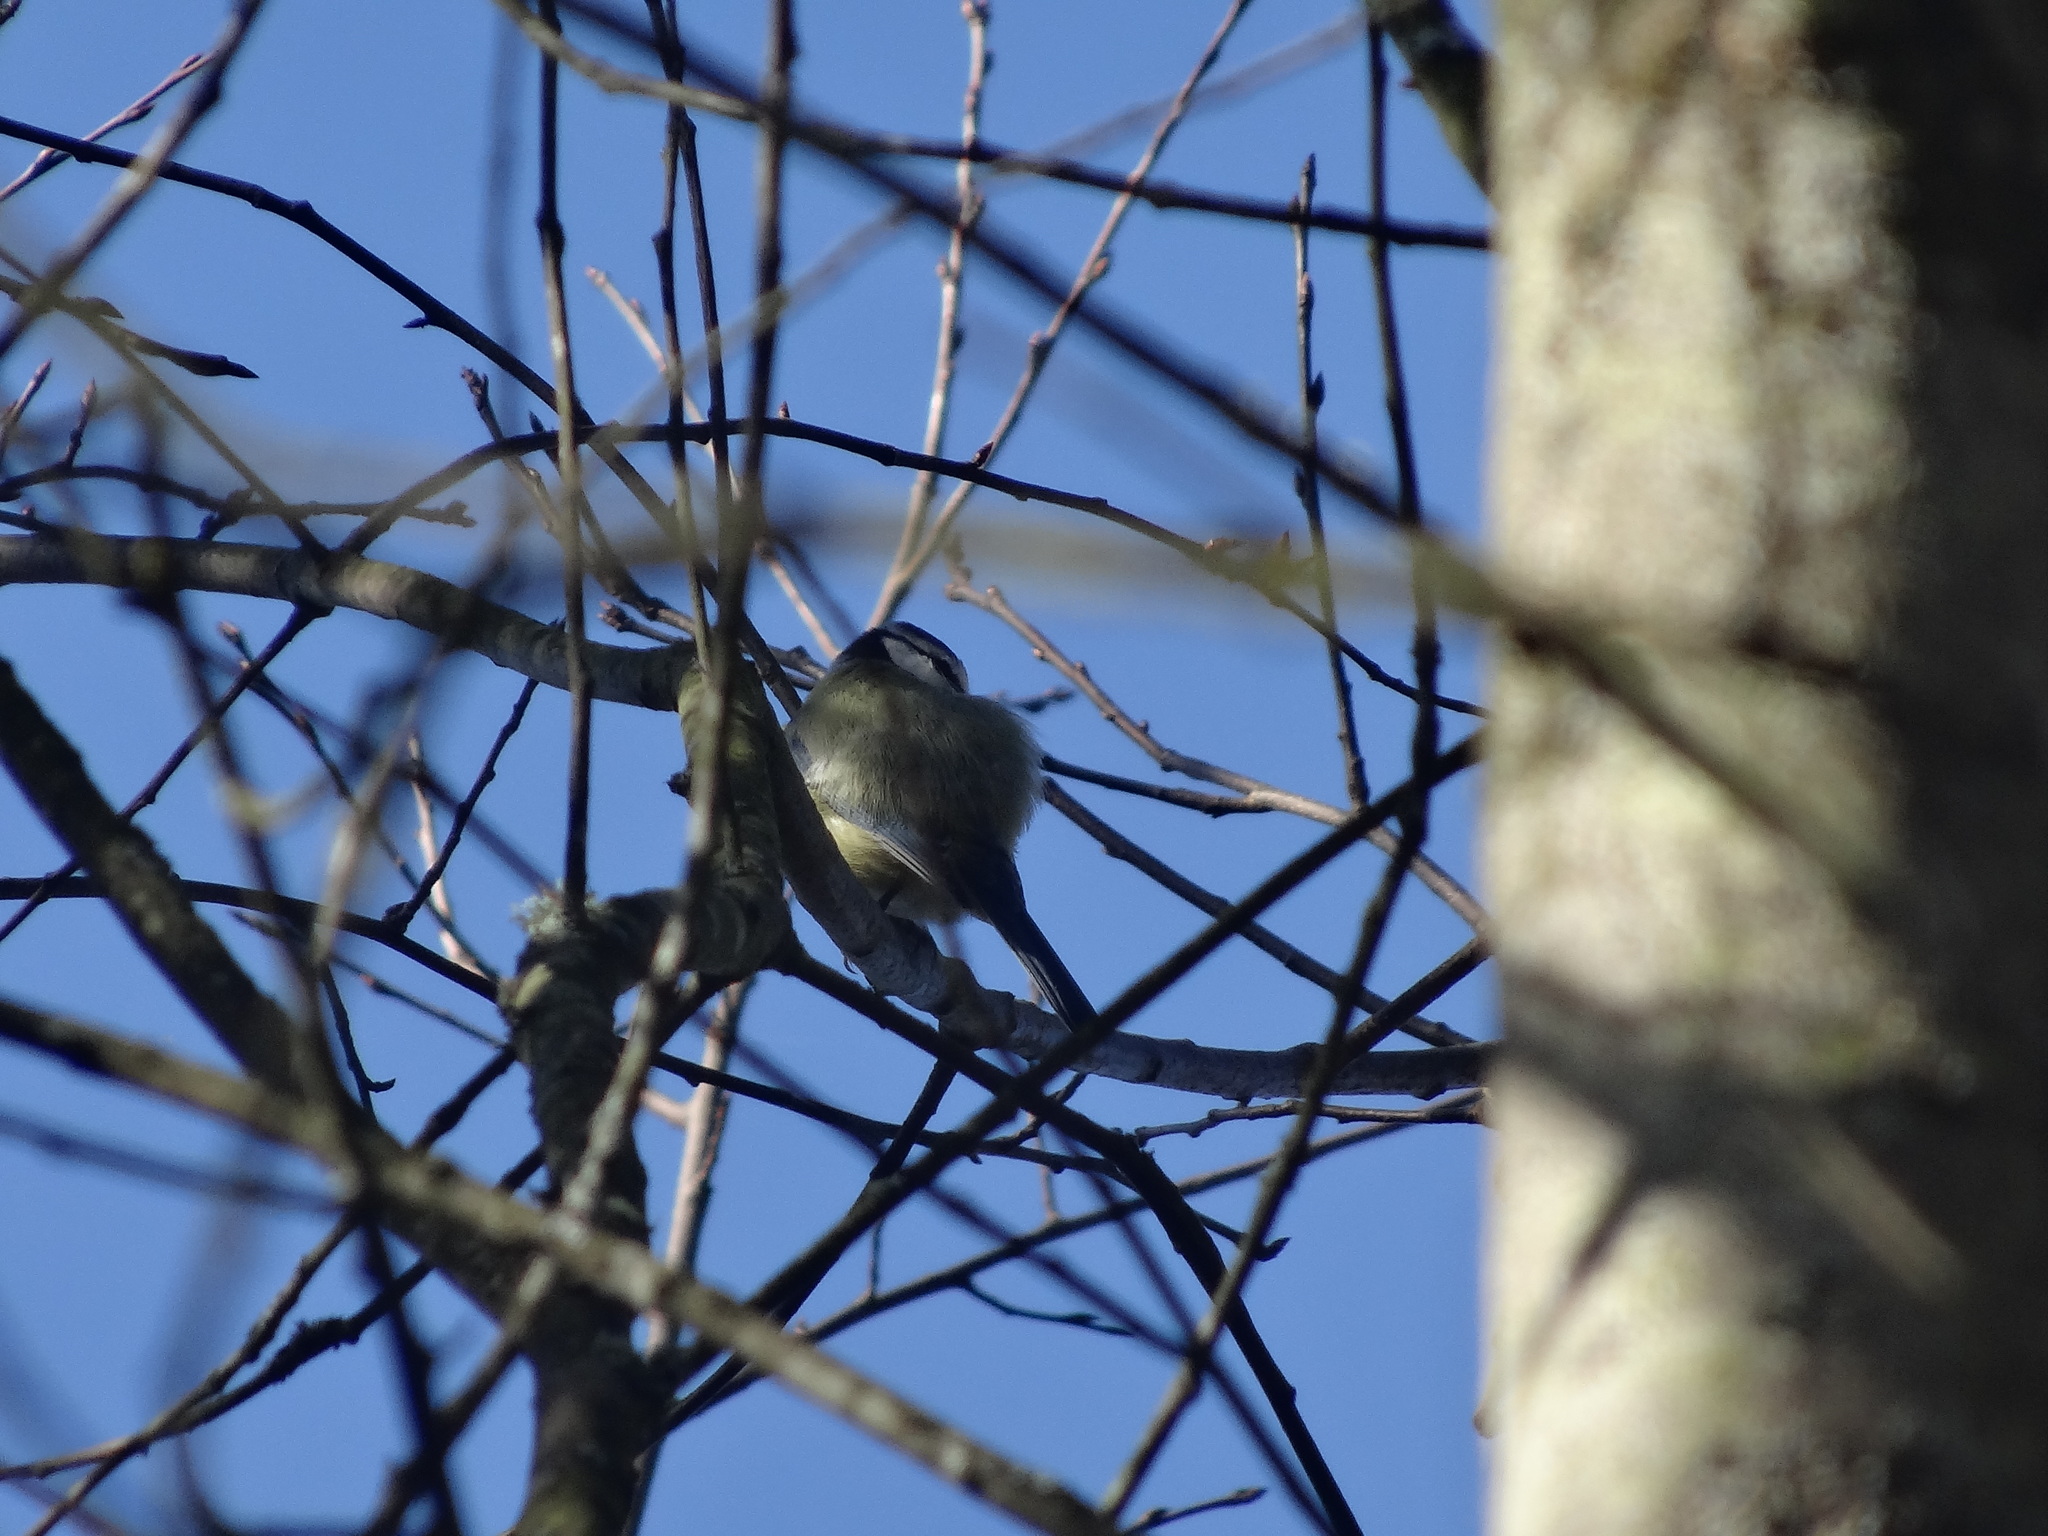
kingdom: Animalia
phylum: Chordata
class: Aves
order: Passeriformes
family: Paridae
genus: Cyanistes
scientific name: Cyanistes caeruleus
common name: Eurasian blue tit
